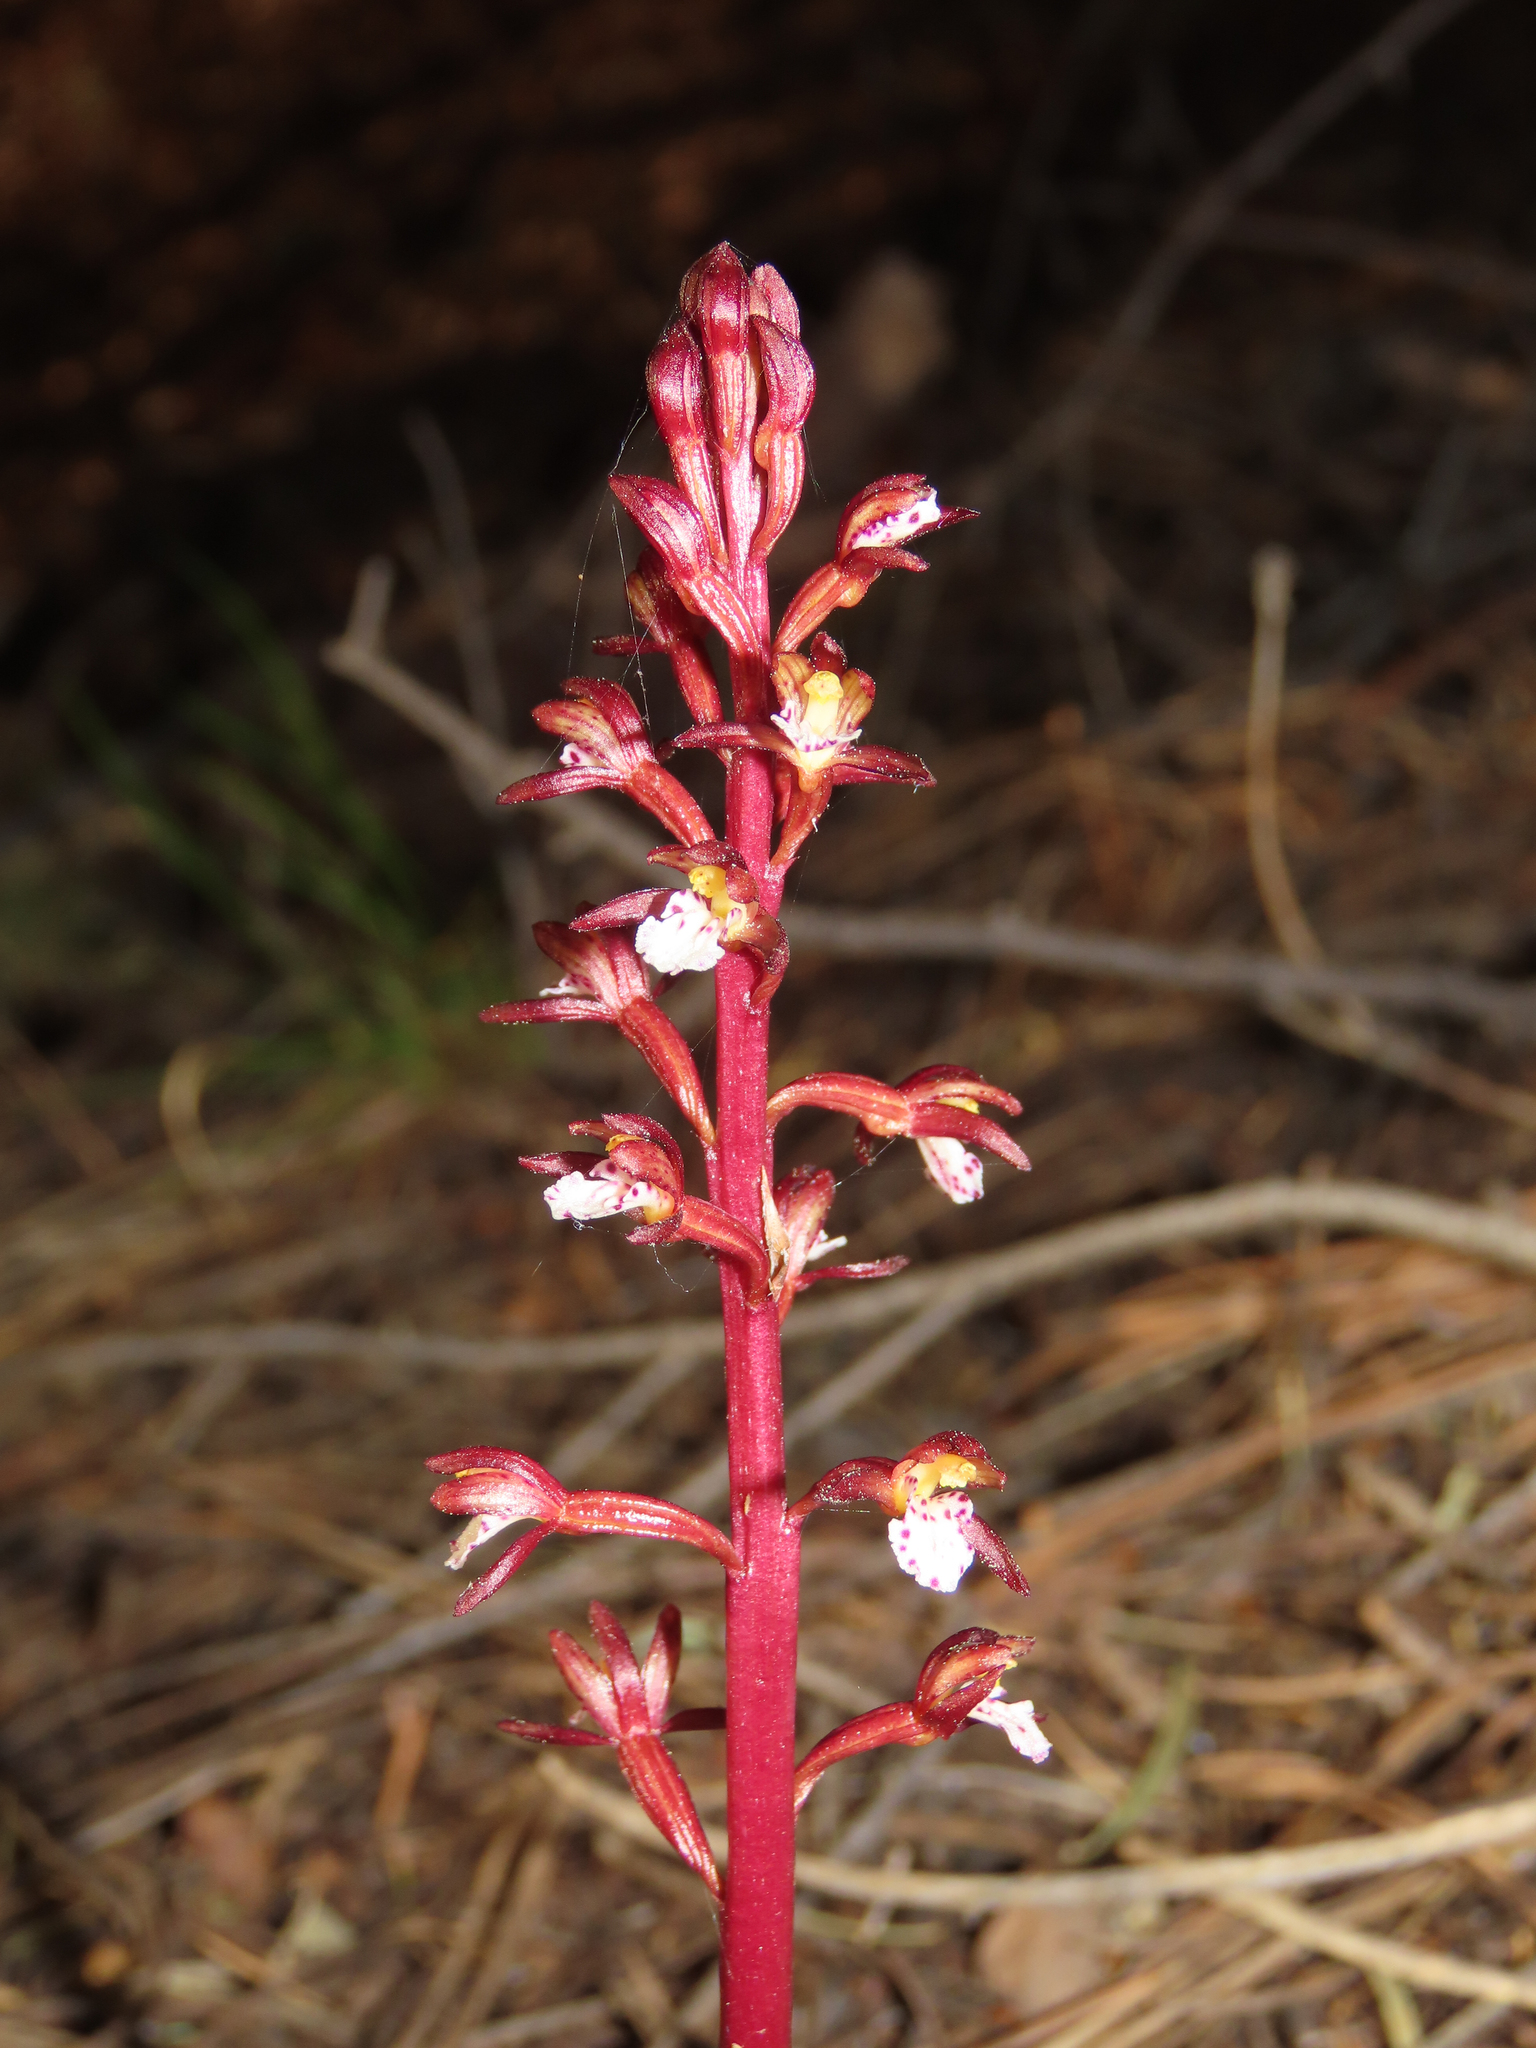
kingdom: Plantae
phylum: Tracheophyta
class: Liliopsida
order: Asparagales
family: Orchidaceae
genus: Corallorhiza
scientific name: Corallorhiza maculata
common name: Spotted coralroot
